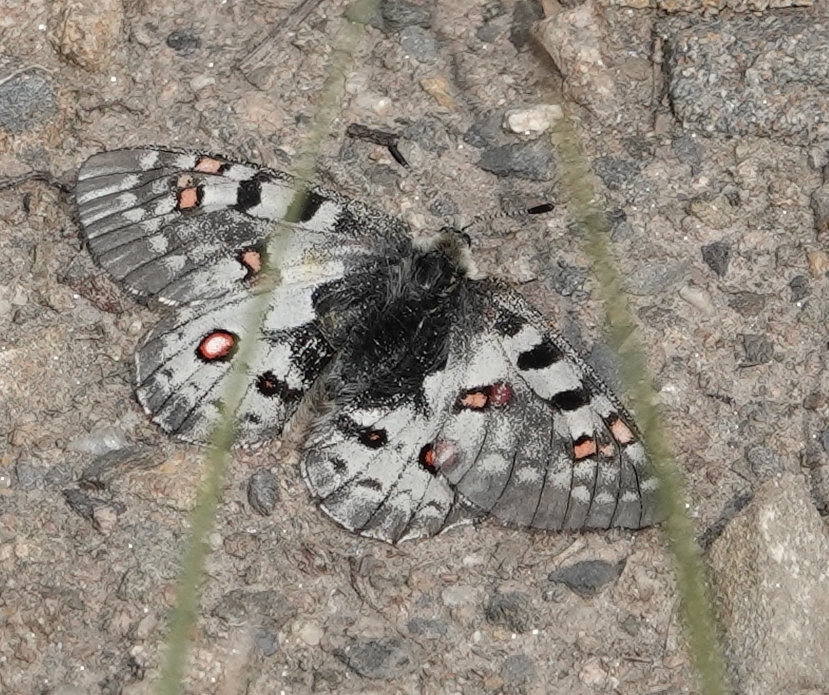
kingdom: Animalia
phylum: Arthropoda
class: Insecta
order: Lepidoptera
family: Papilionidae
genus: Parnassius
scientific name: Parnassius smintheus
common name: Mountain parnassian
